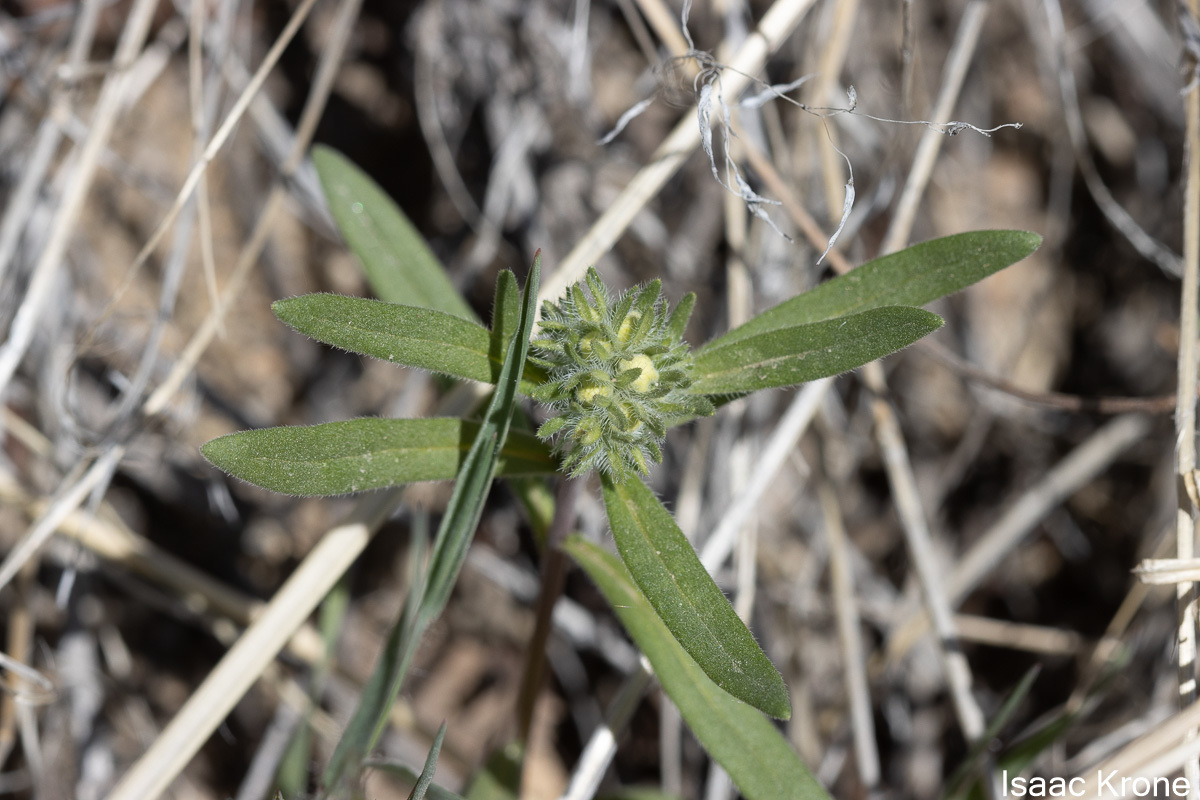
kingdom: Plantae
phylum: Tracheophyta
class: Magnoliopsida
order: Ericales
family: Polemoniaceae
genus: Collomia
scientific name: Collomia grandiflora
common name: California strawflower
